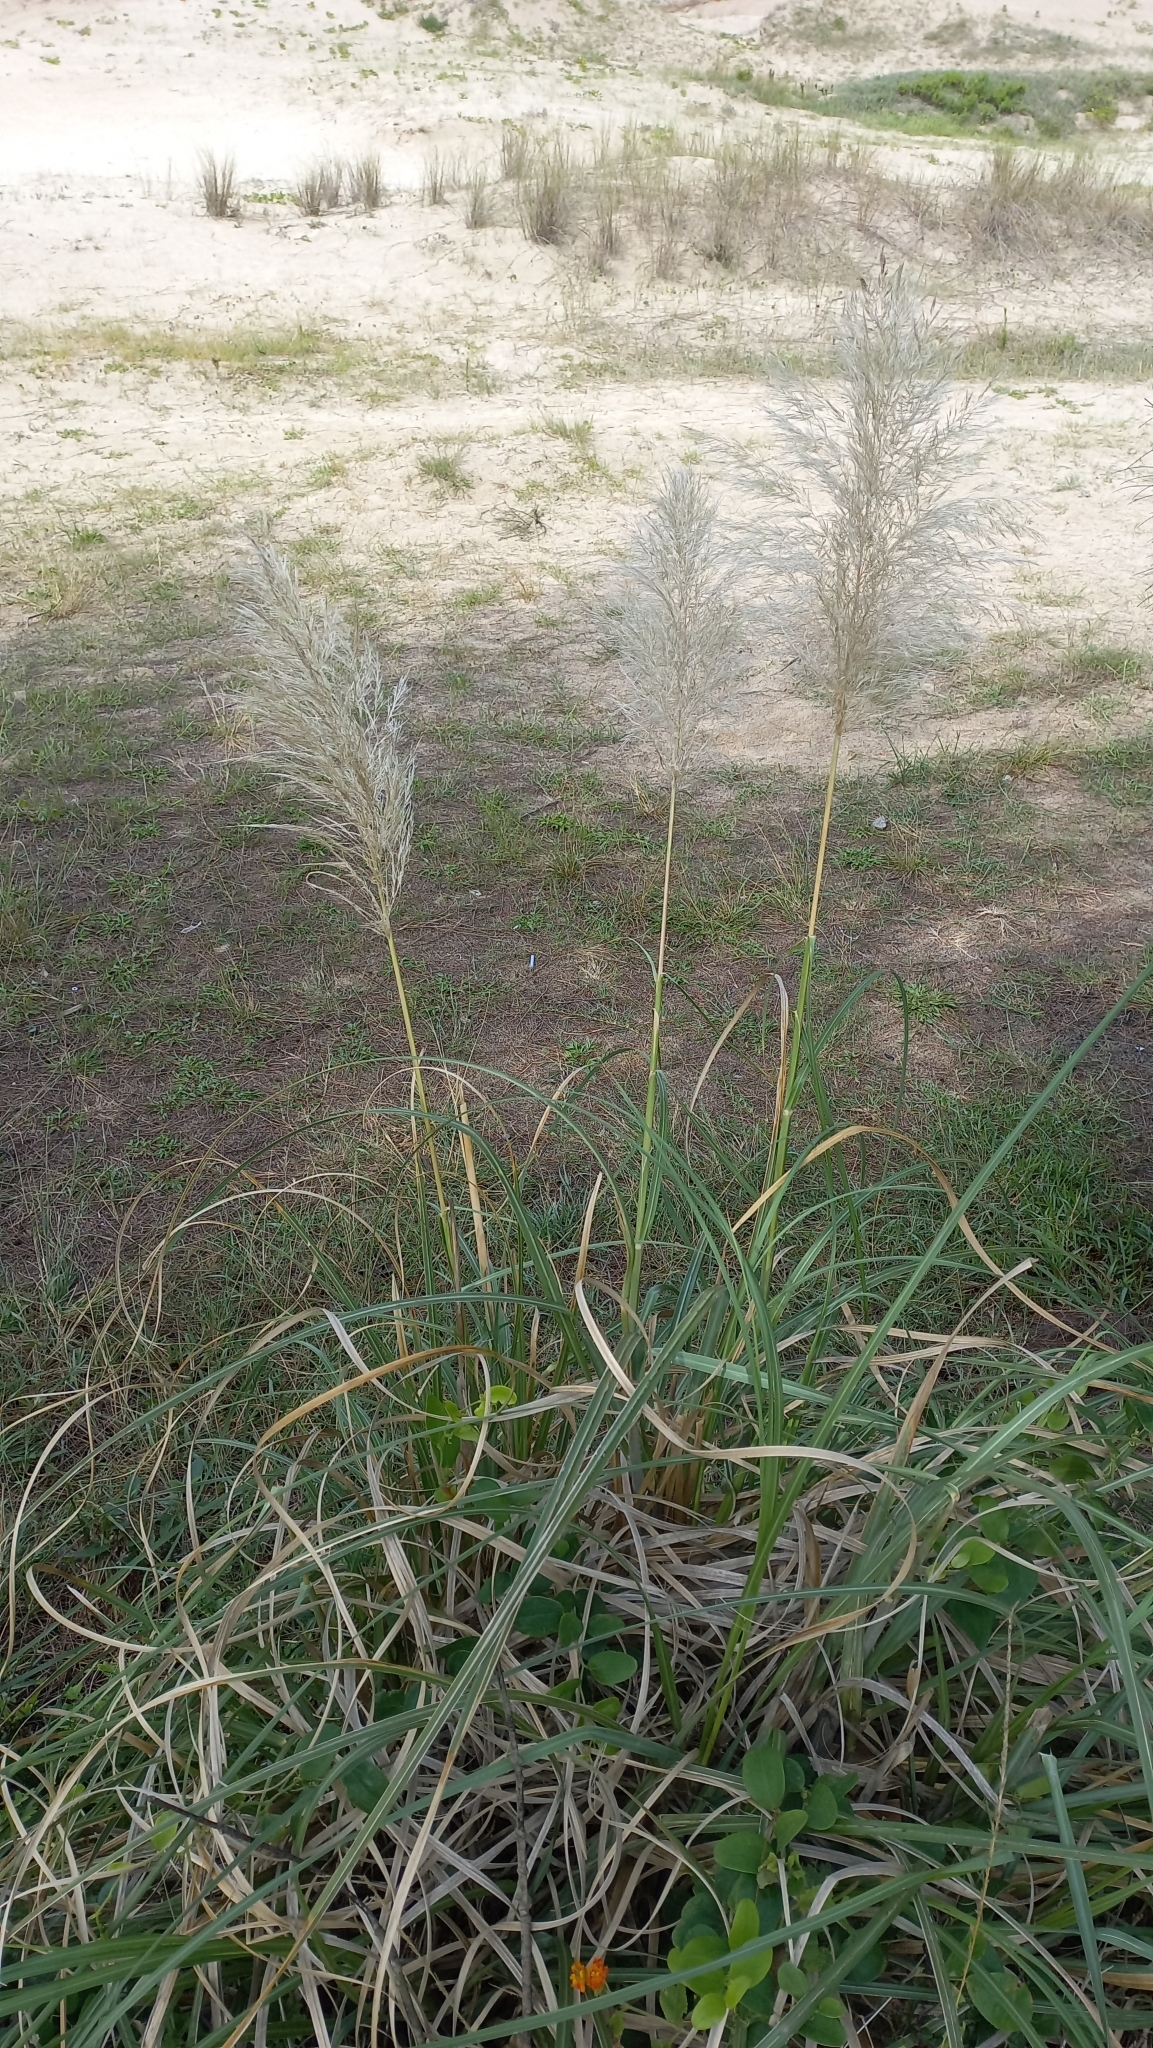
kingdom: Plantae
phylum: Tracheophyta
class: Liliopsida
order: Poales
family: Poaceae
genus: Cortaderia
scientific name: Cortaderia selloana
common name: Uruguayan pampas grass
